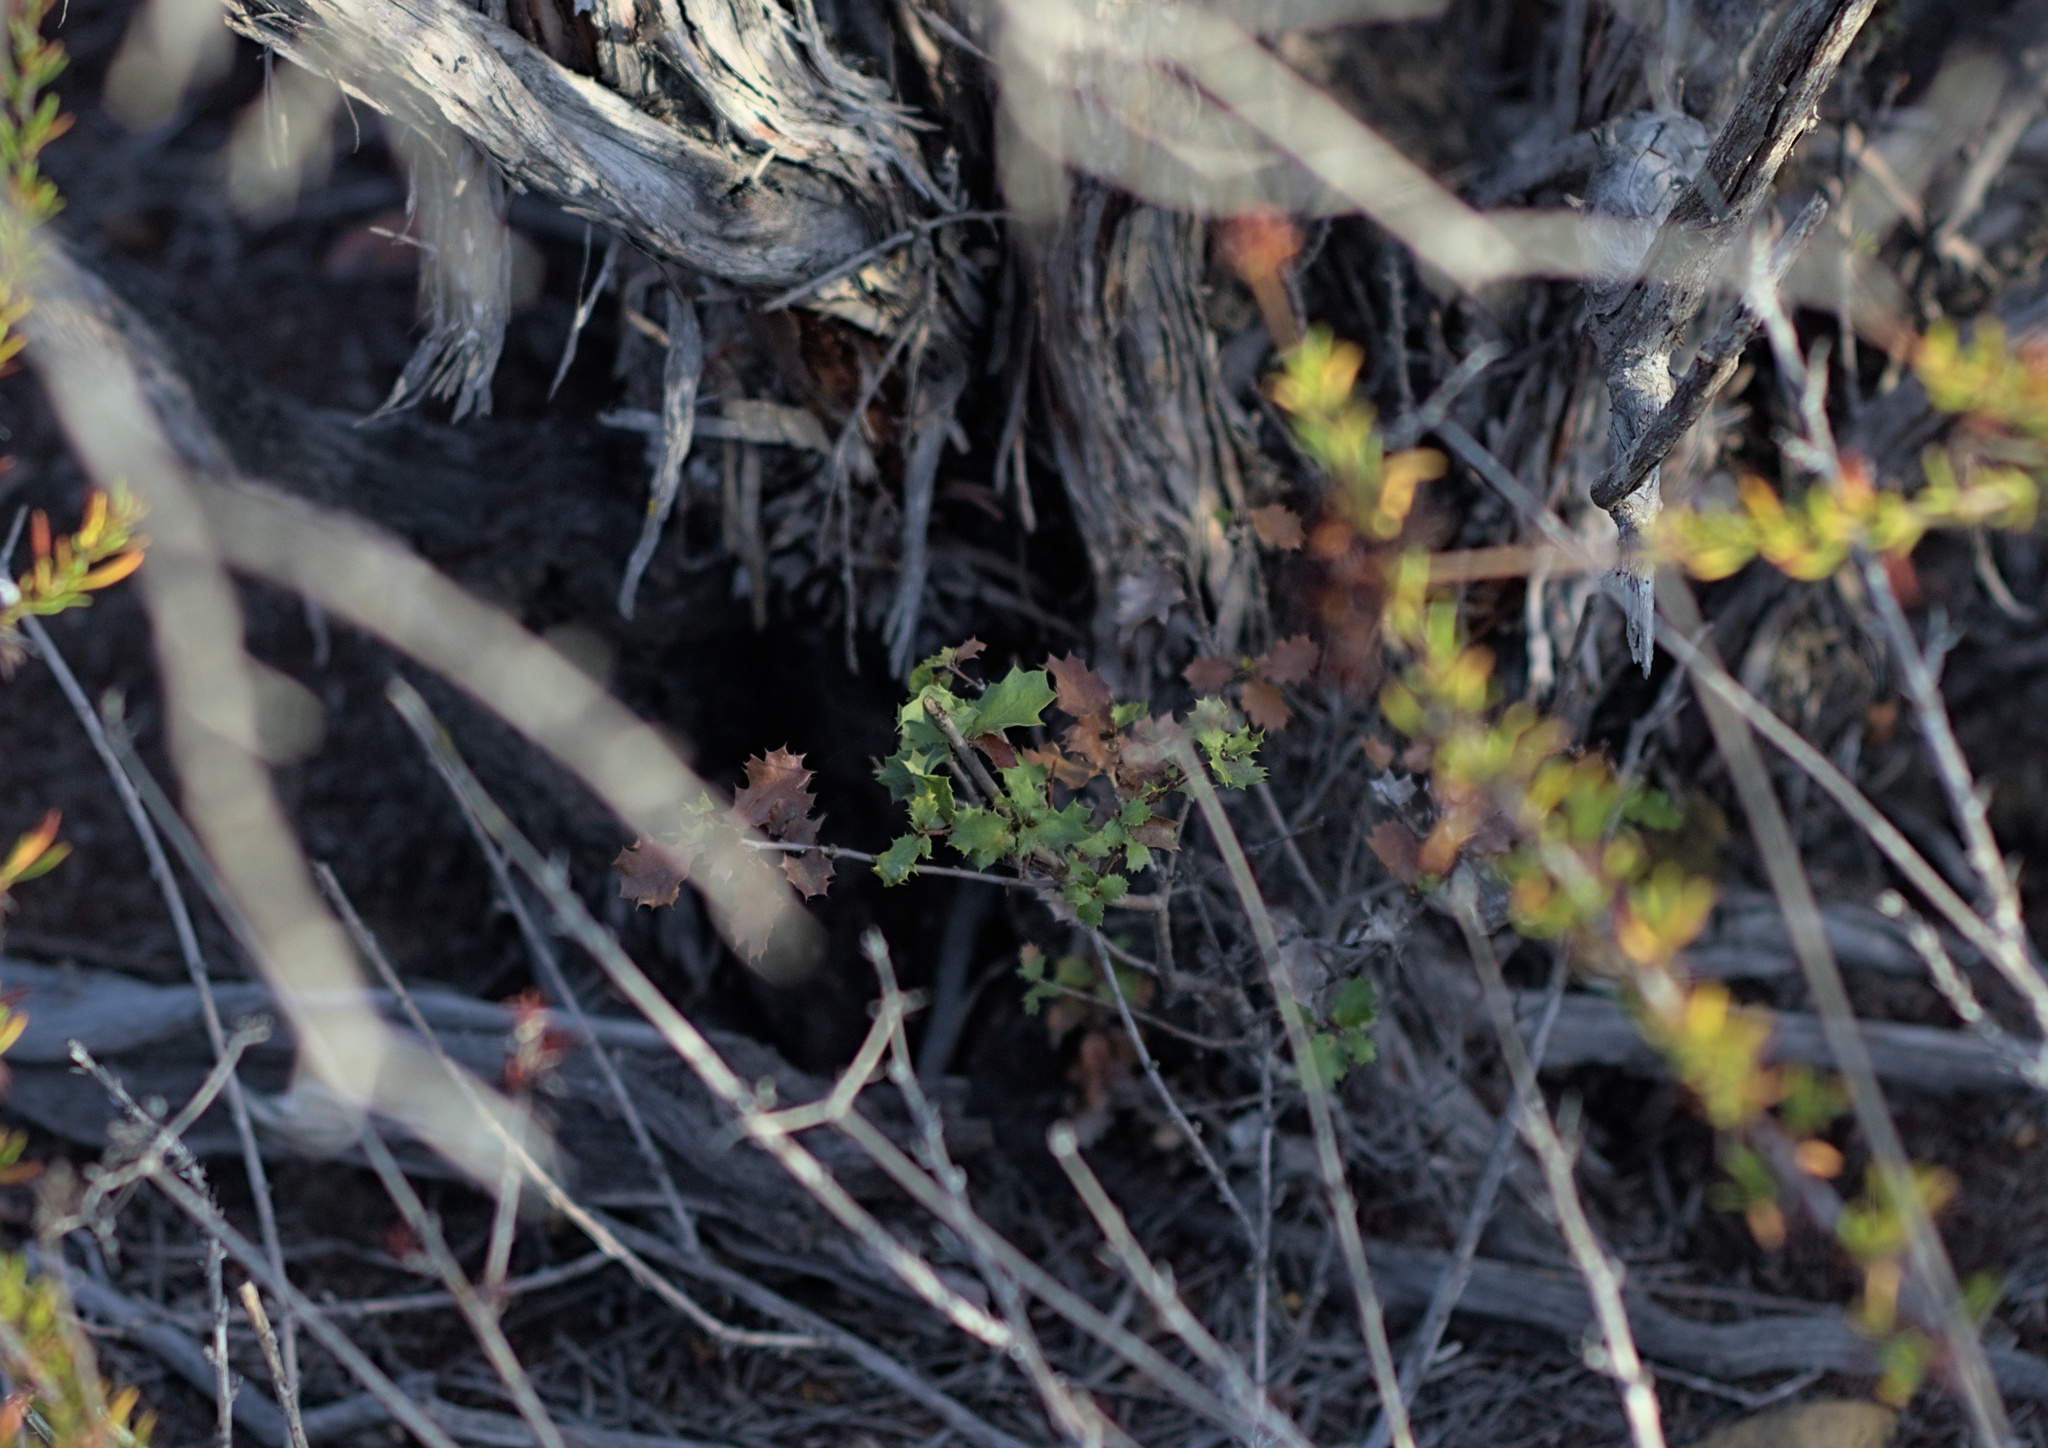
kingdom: Plantae
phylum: Tracheophyta
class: Magnoliopsida
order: Fagales
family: Fagaceae
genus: Quercus
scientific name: Quercus dumosa
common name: Coastal sage scrub oak
